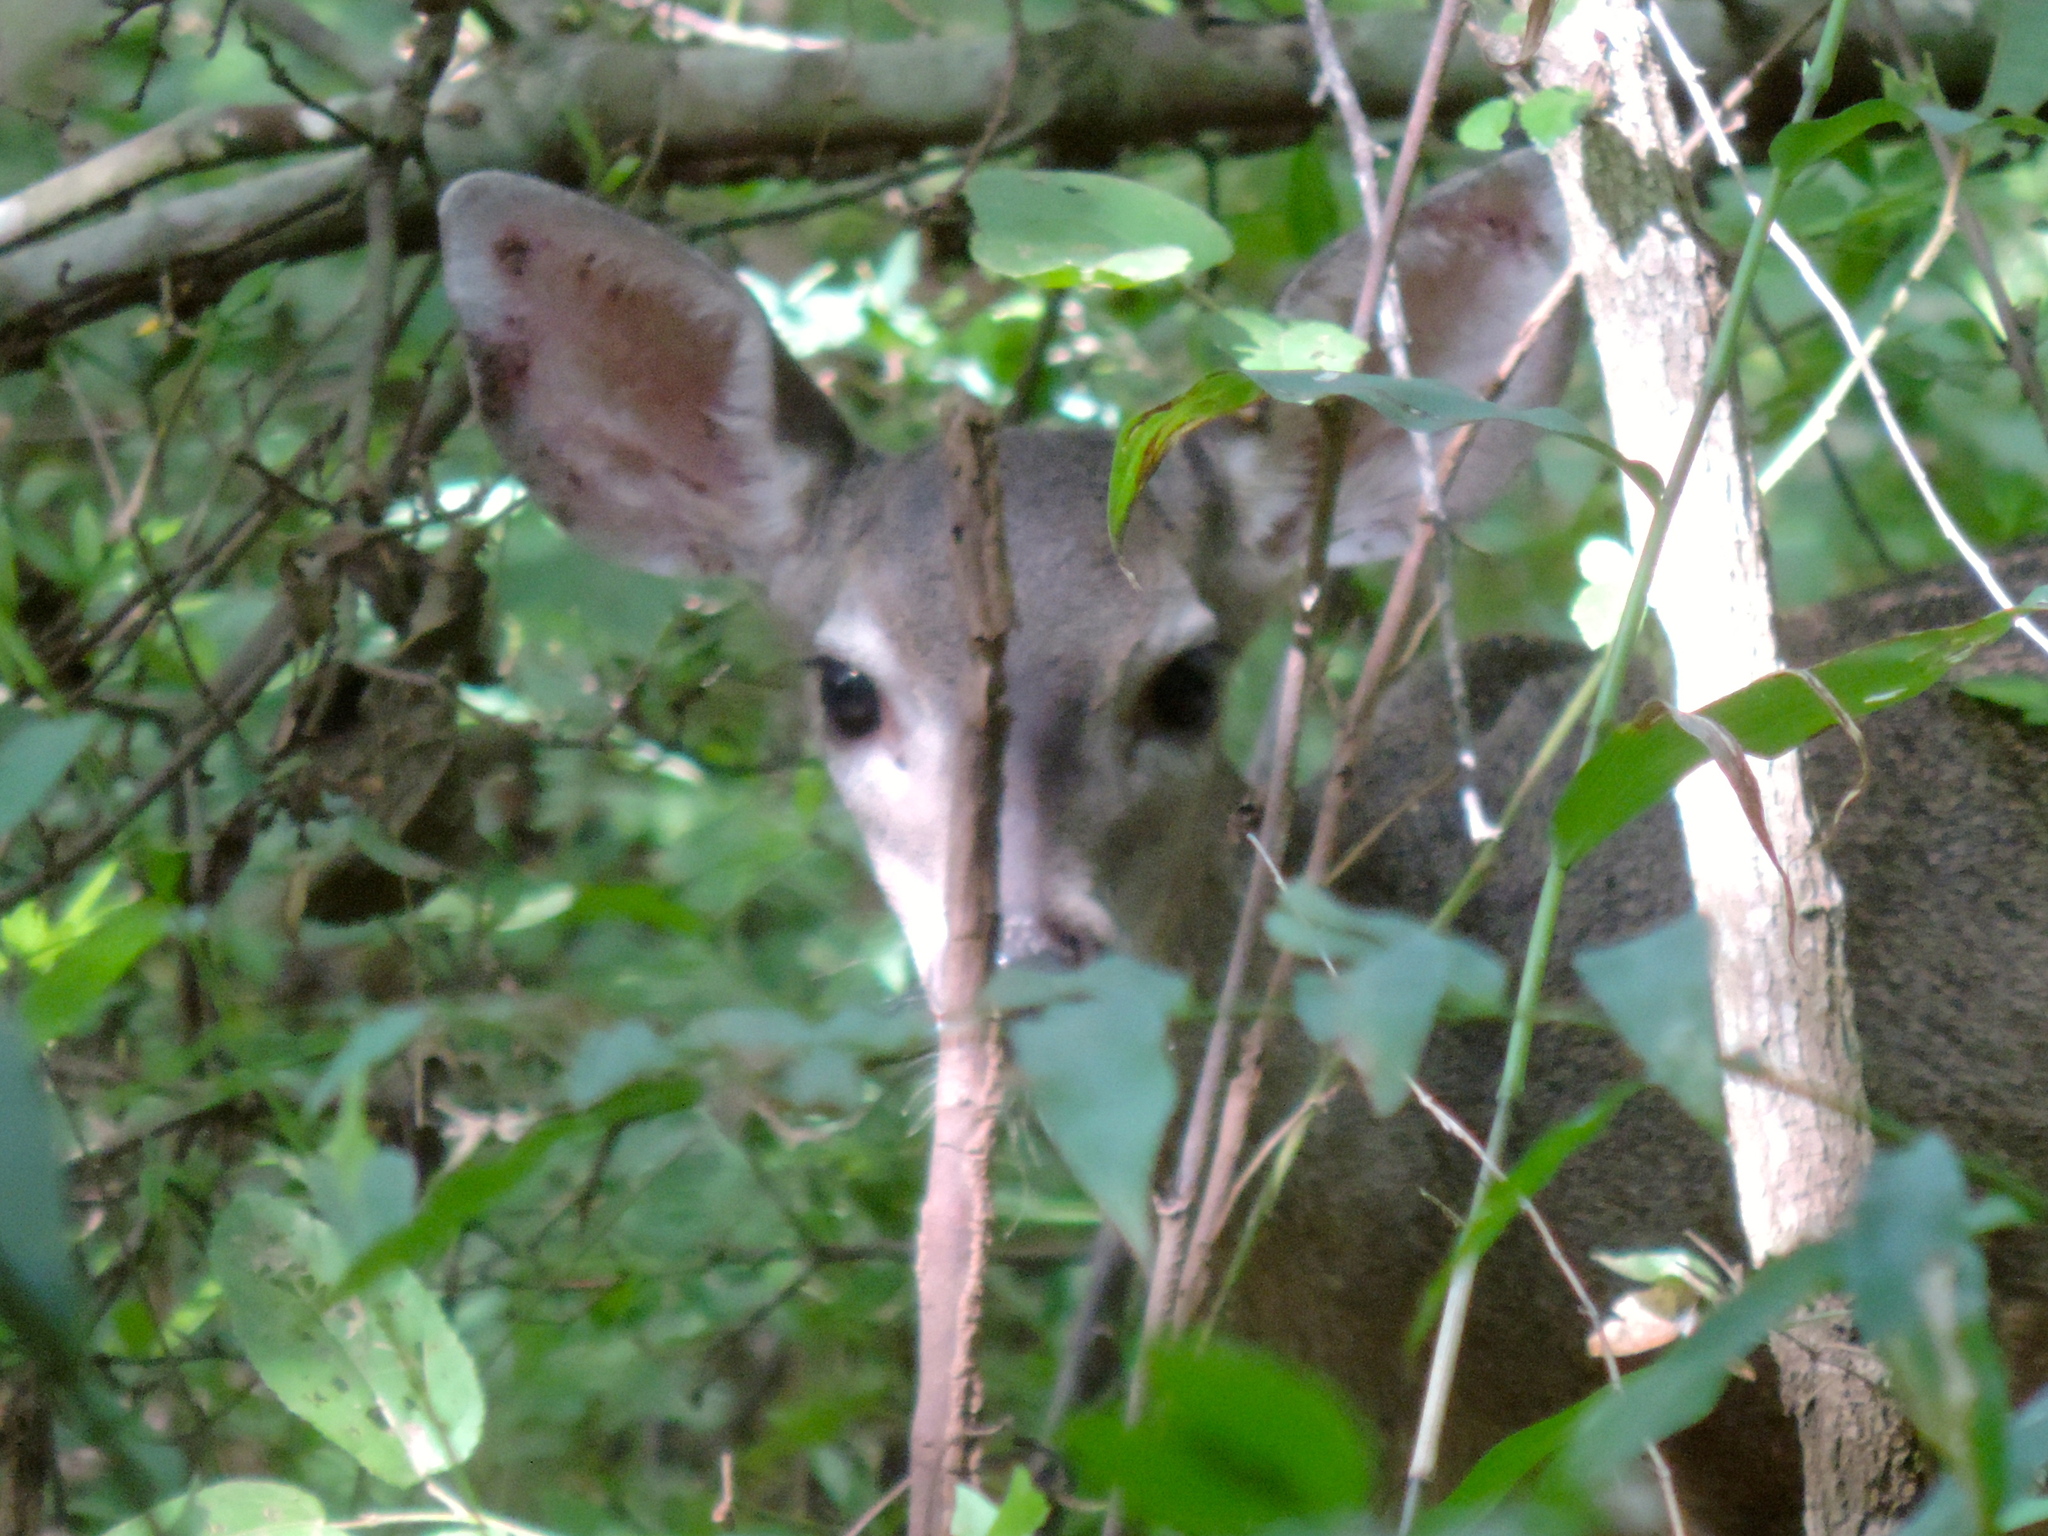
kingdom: Animalia
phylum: Chordata
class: Mammalia
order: Artiodactyla
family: Cervidae
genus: Odocoileus
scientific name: Odocoileus virginianus
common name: White-tailed deer
